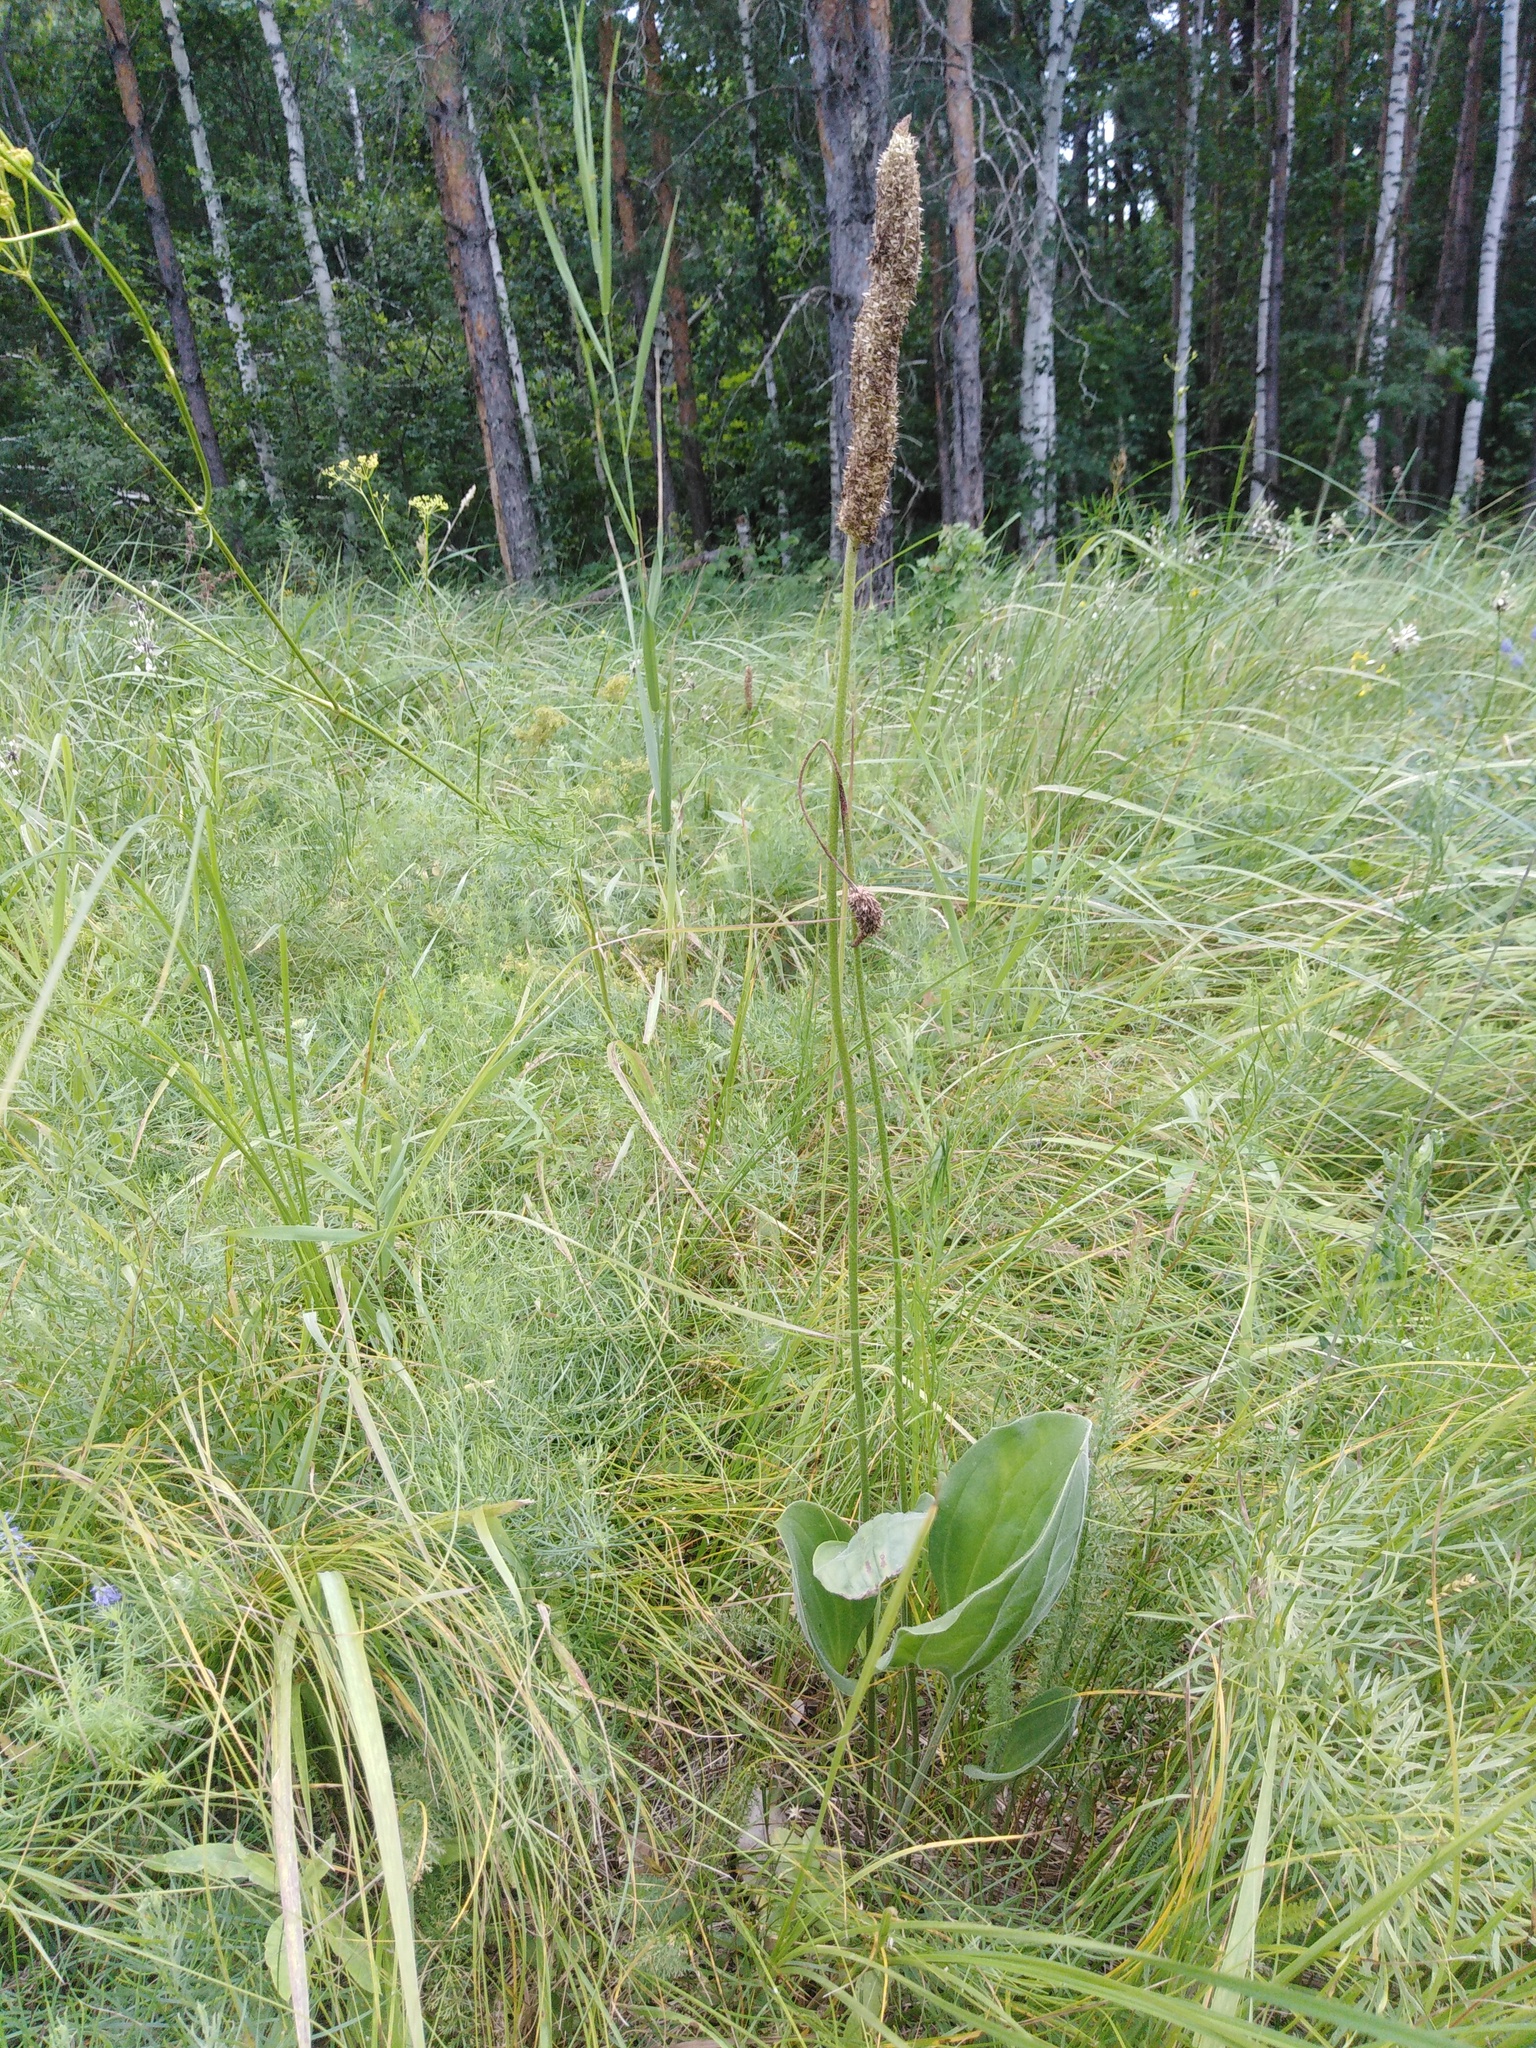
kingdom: Plantae
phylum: Tracheophyta
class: Magnoliopsida
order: Lamiales
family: Plantaginaceae
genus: Plantago
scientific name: Plantago maxima
